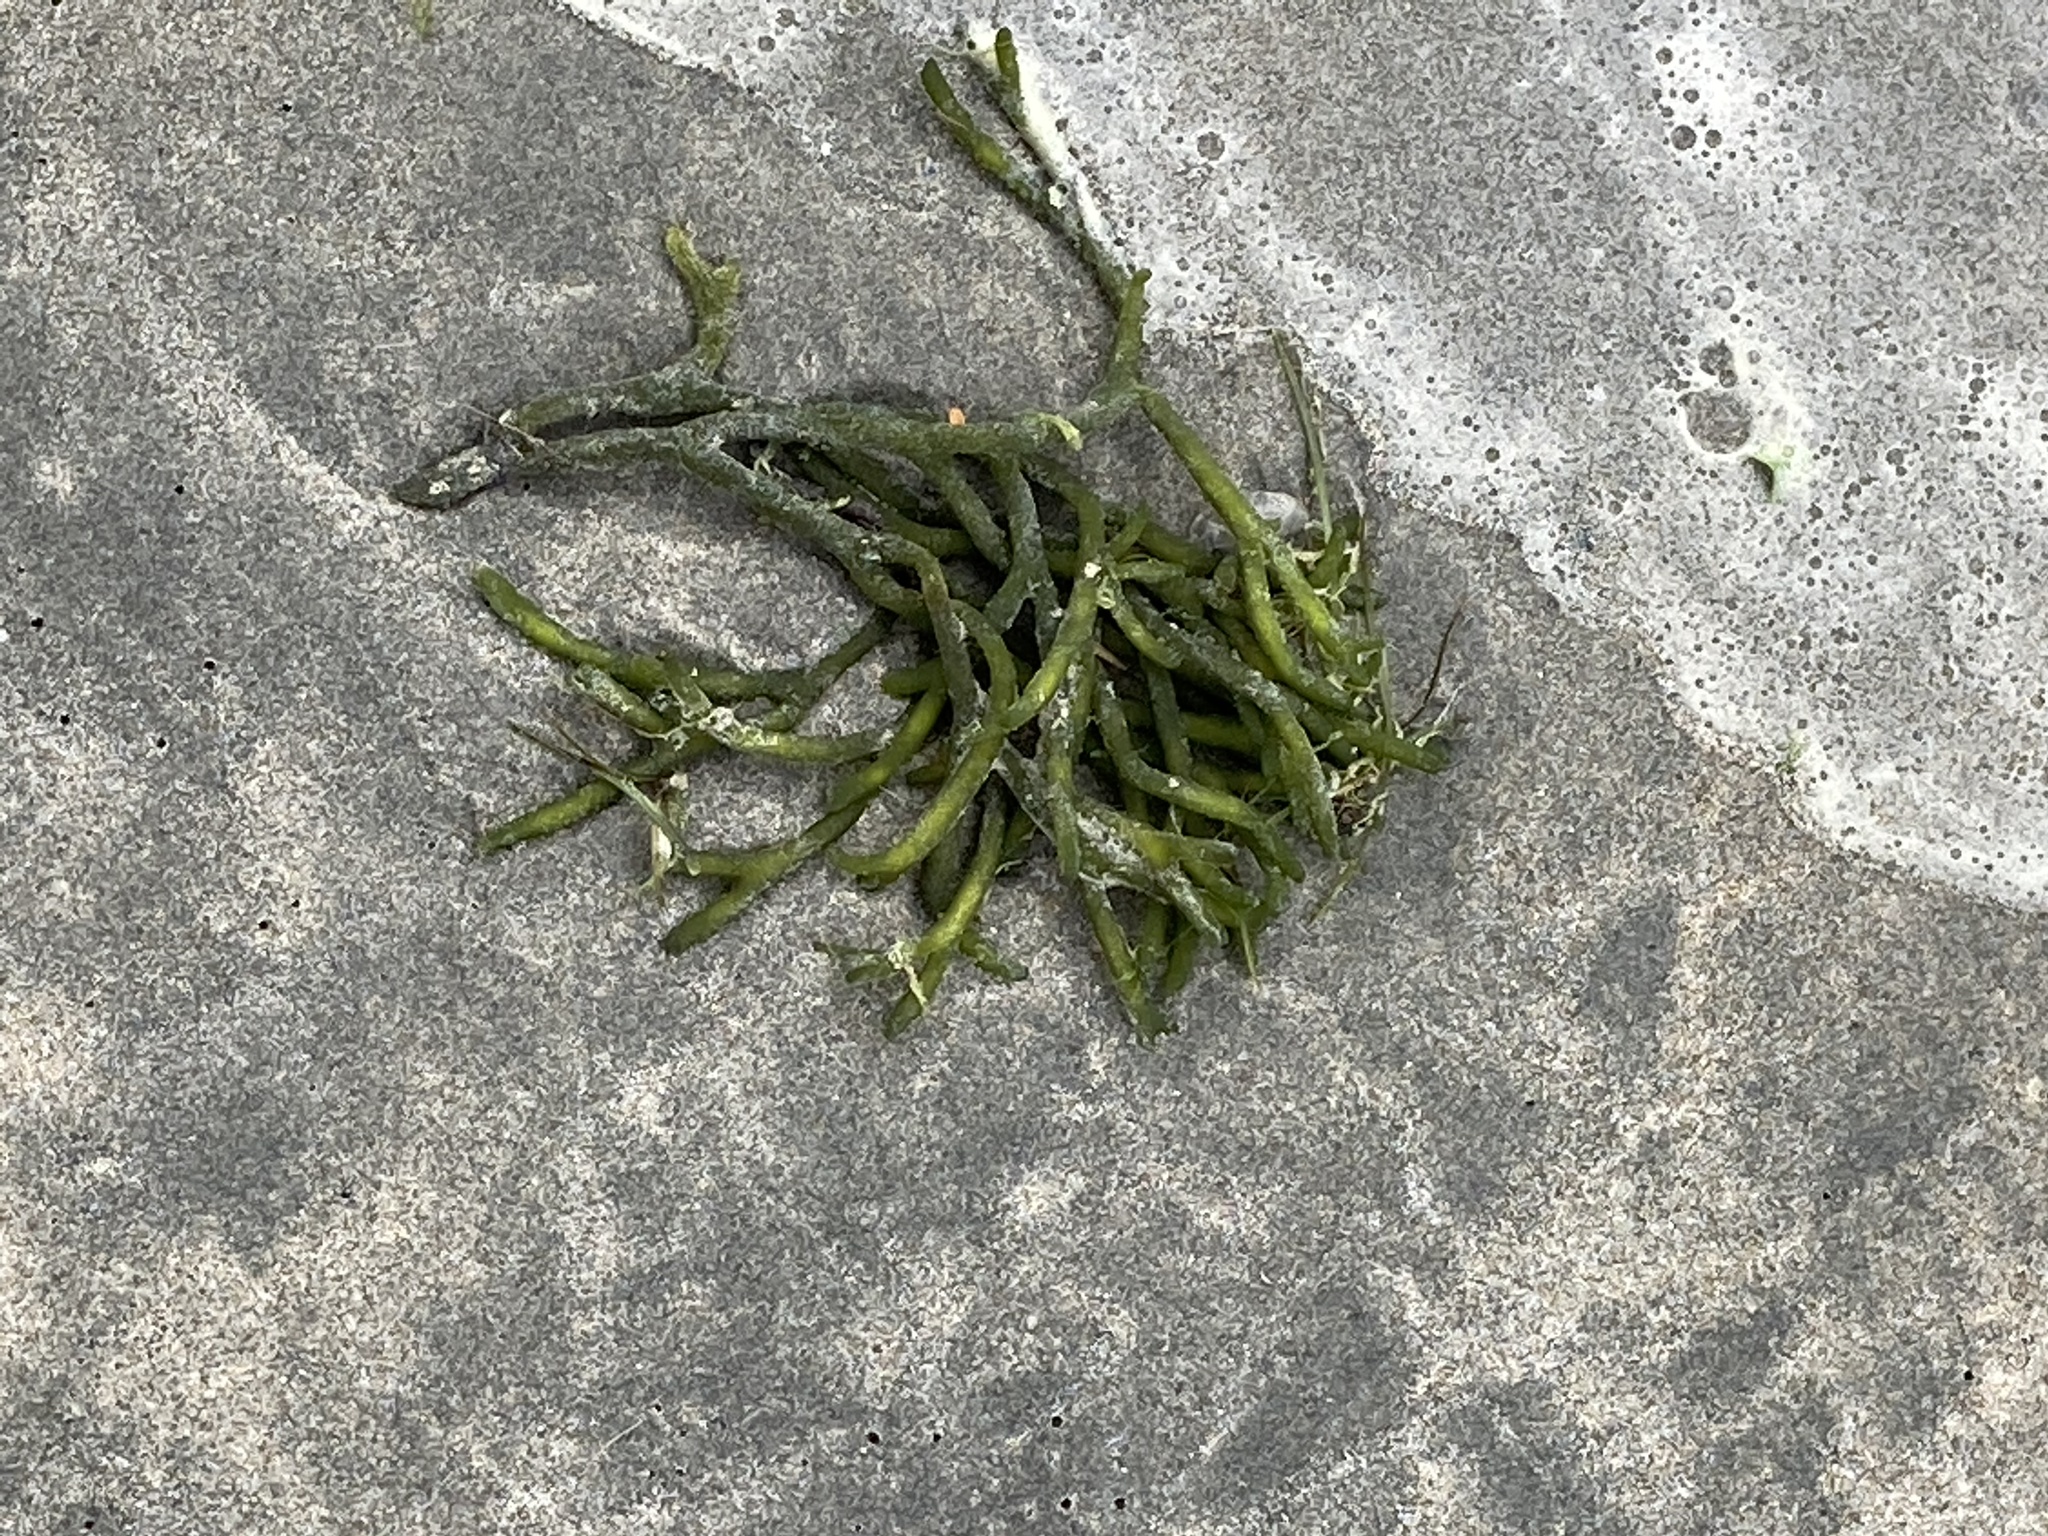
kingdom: Plantae
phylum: Chlorophyta
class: Ulvophyceae
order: Bryopsidales
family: Codiaceae
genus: Codium
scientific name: Codium fragile
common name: Dead man's fingers
